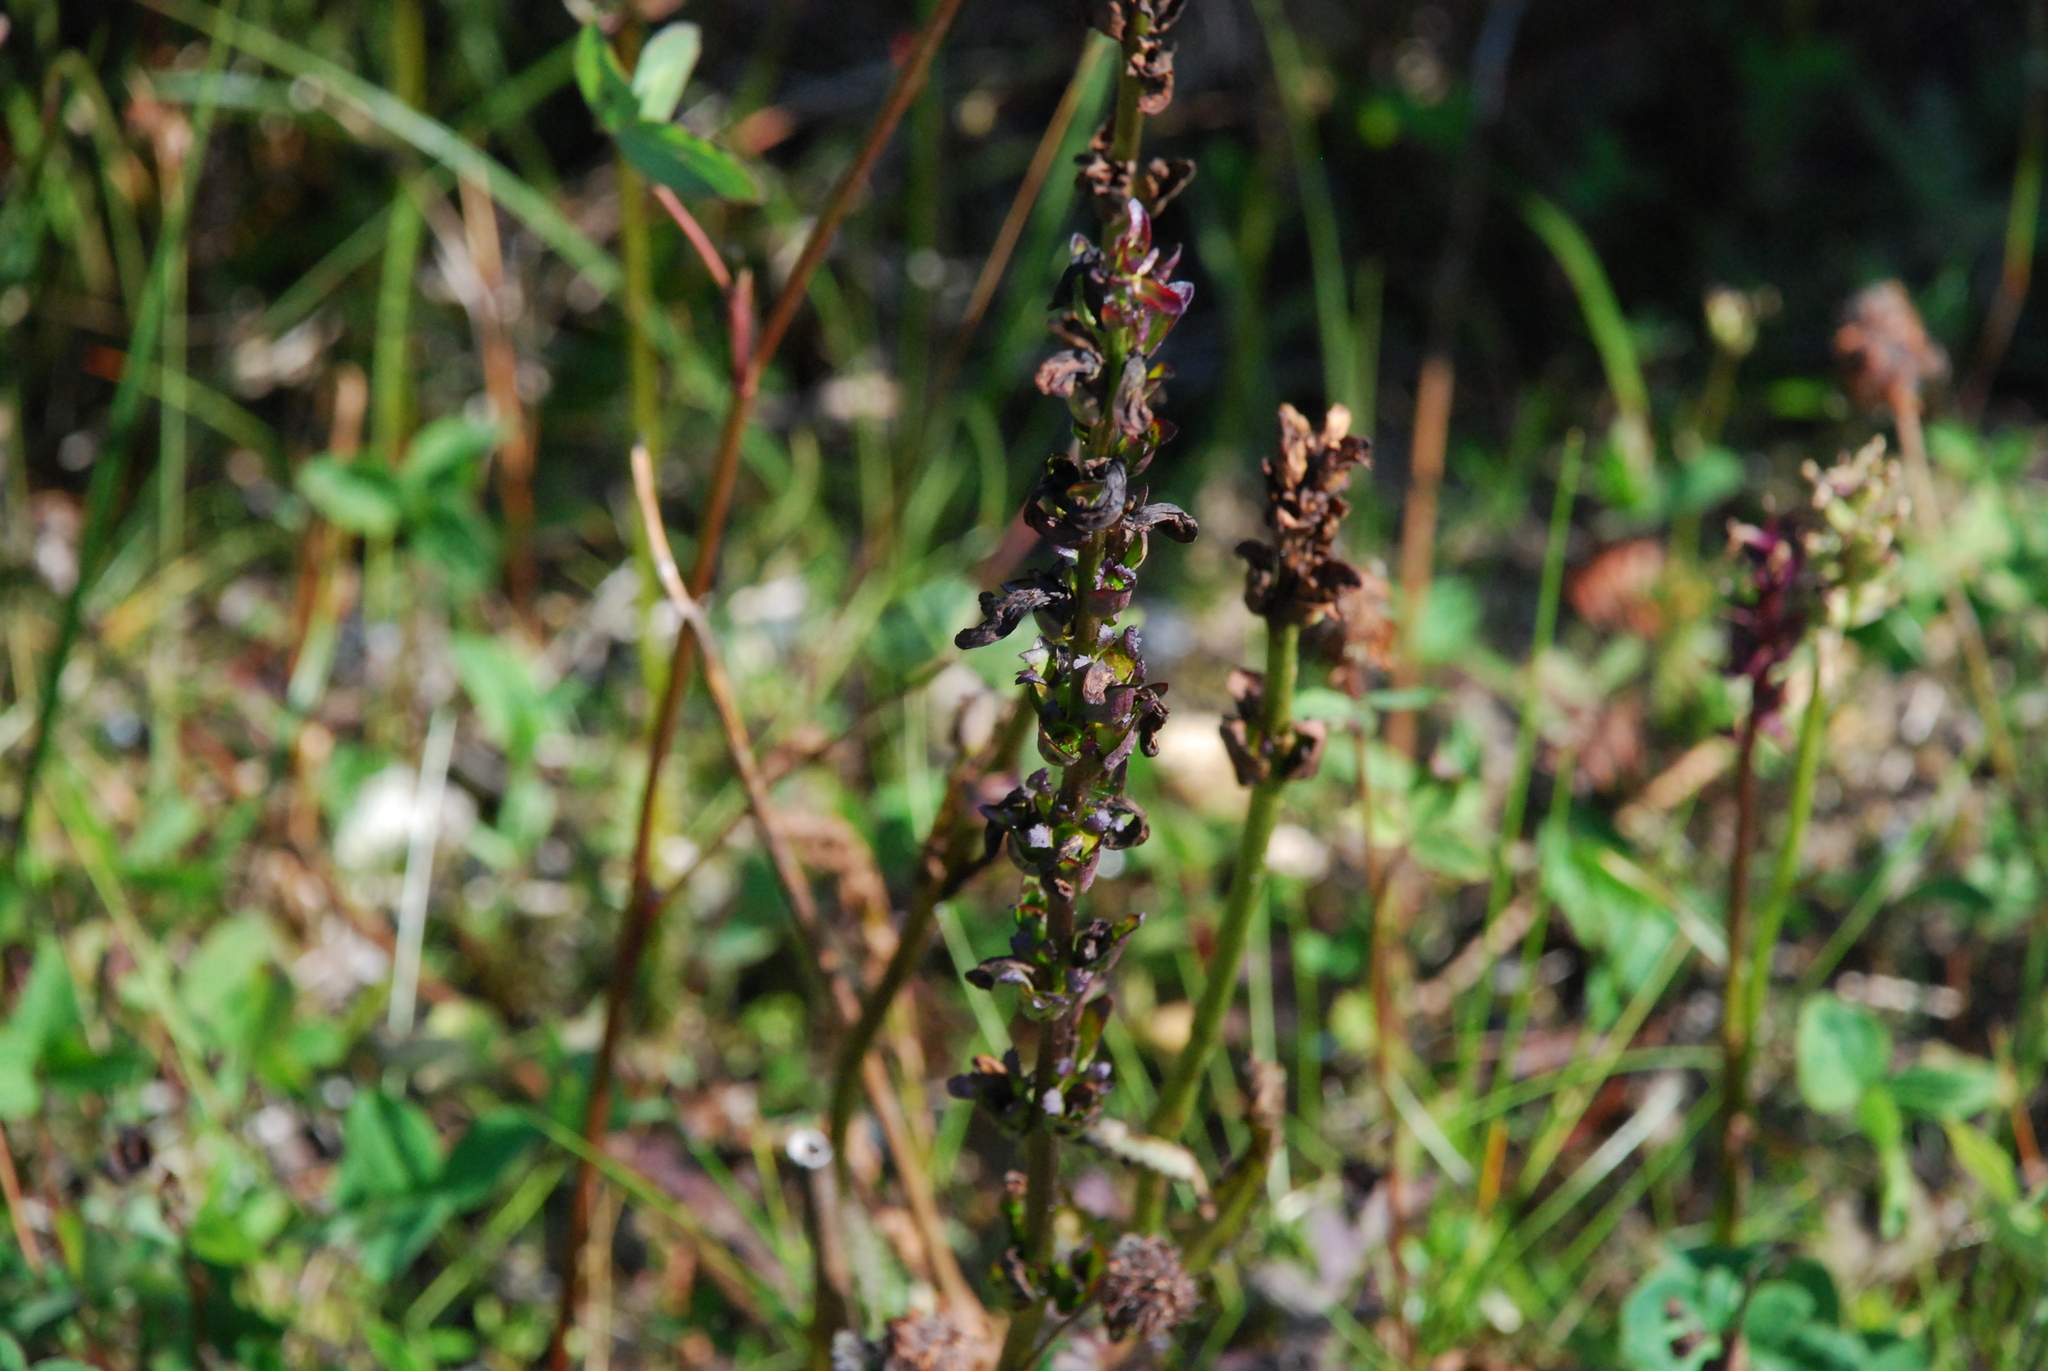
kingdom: Plantae
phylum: Tracheophyta
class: Magnoliopsida
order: Lamiales
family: Orobanchaceae
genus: Pedicularis
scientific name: Pedicularis palustris
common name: Marsh lousewort
